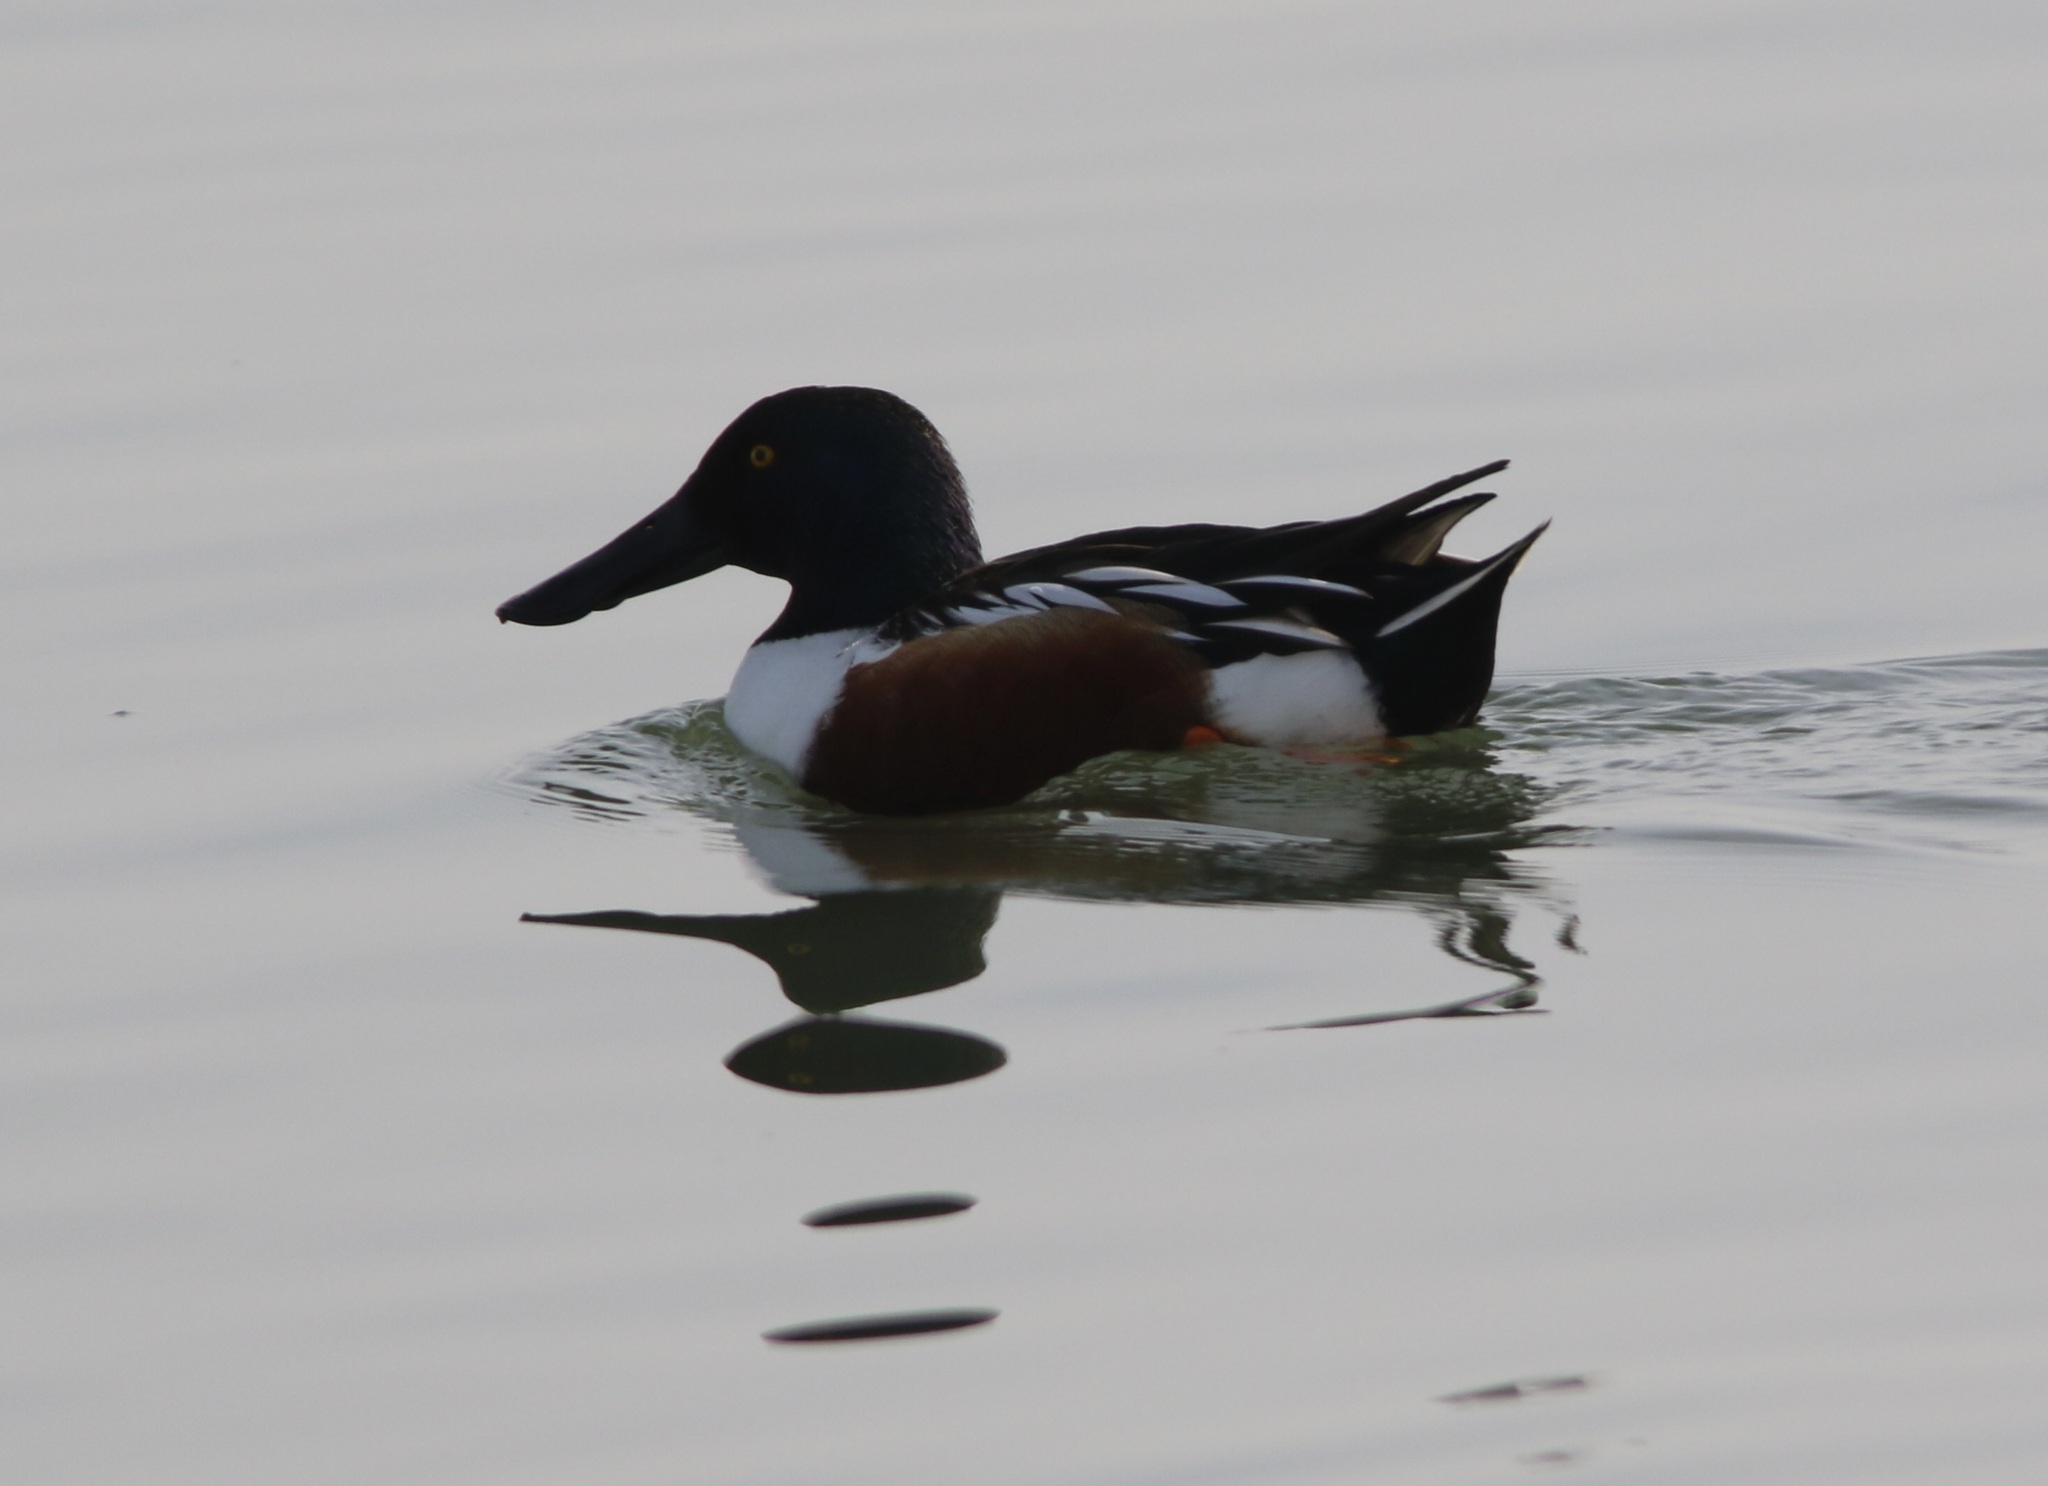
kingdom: Animalia
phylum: Chordata
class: Aves
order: Anseriformes
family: Anatidae
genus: Spatula
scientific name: Spatula clypeata
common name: Northern shoveler
